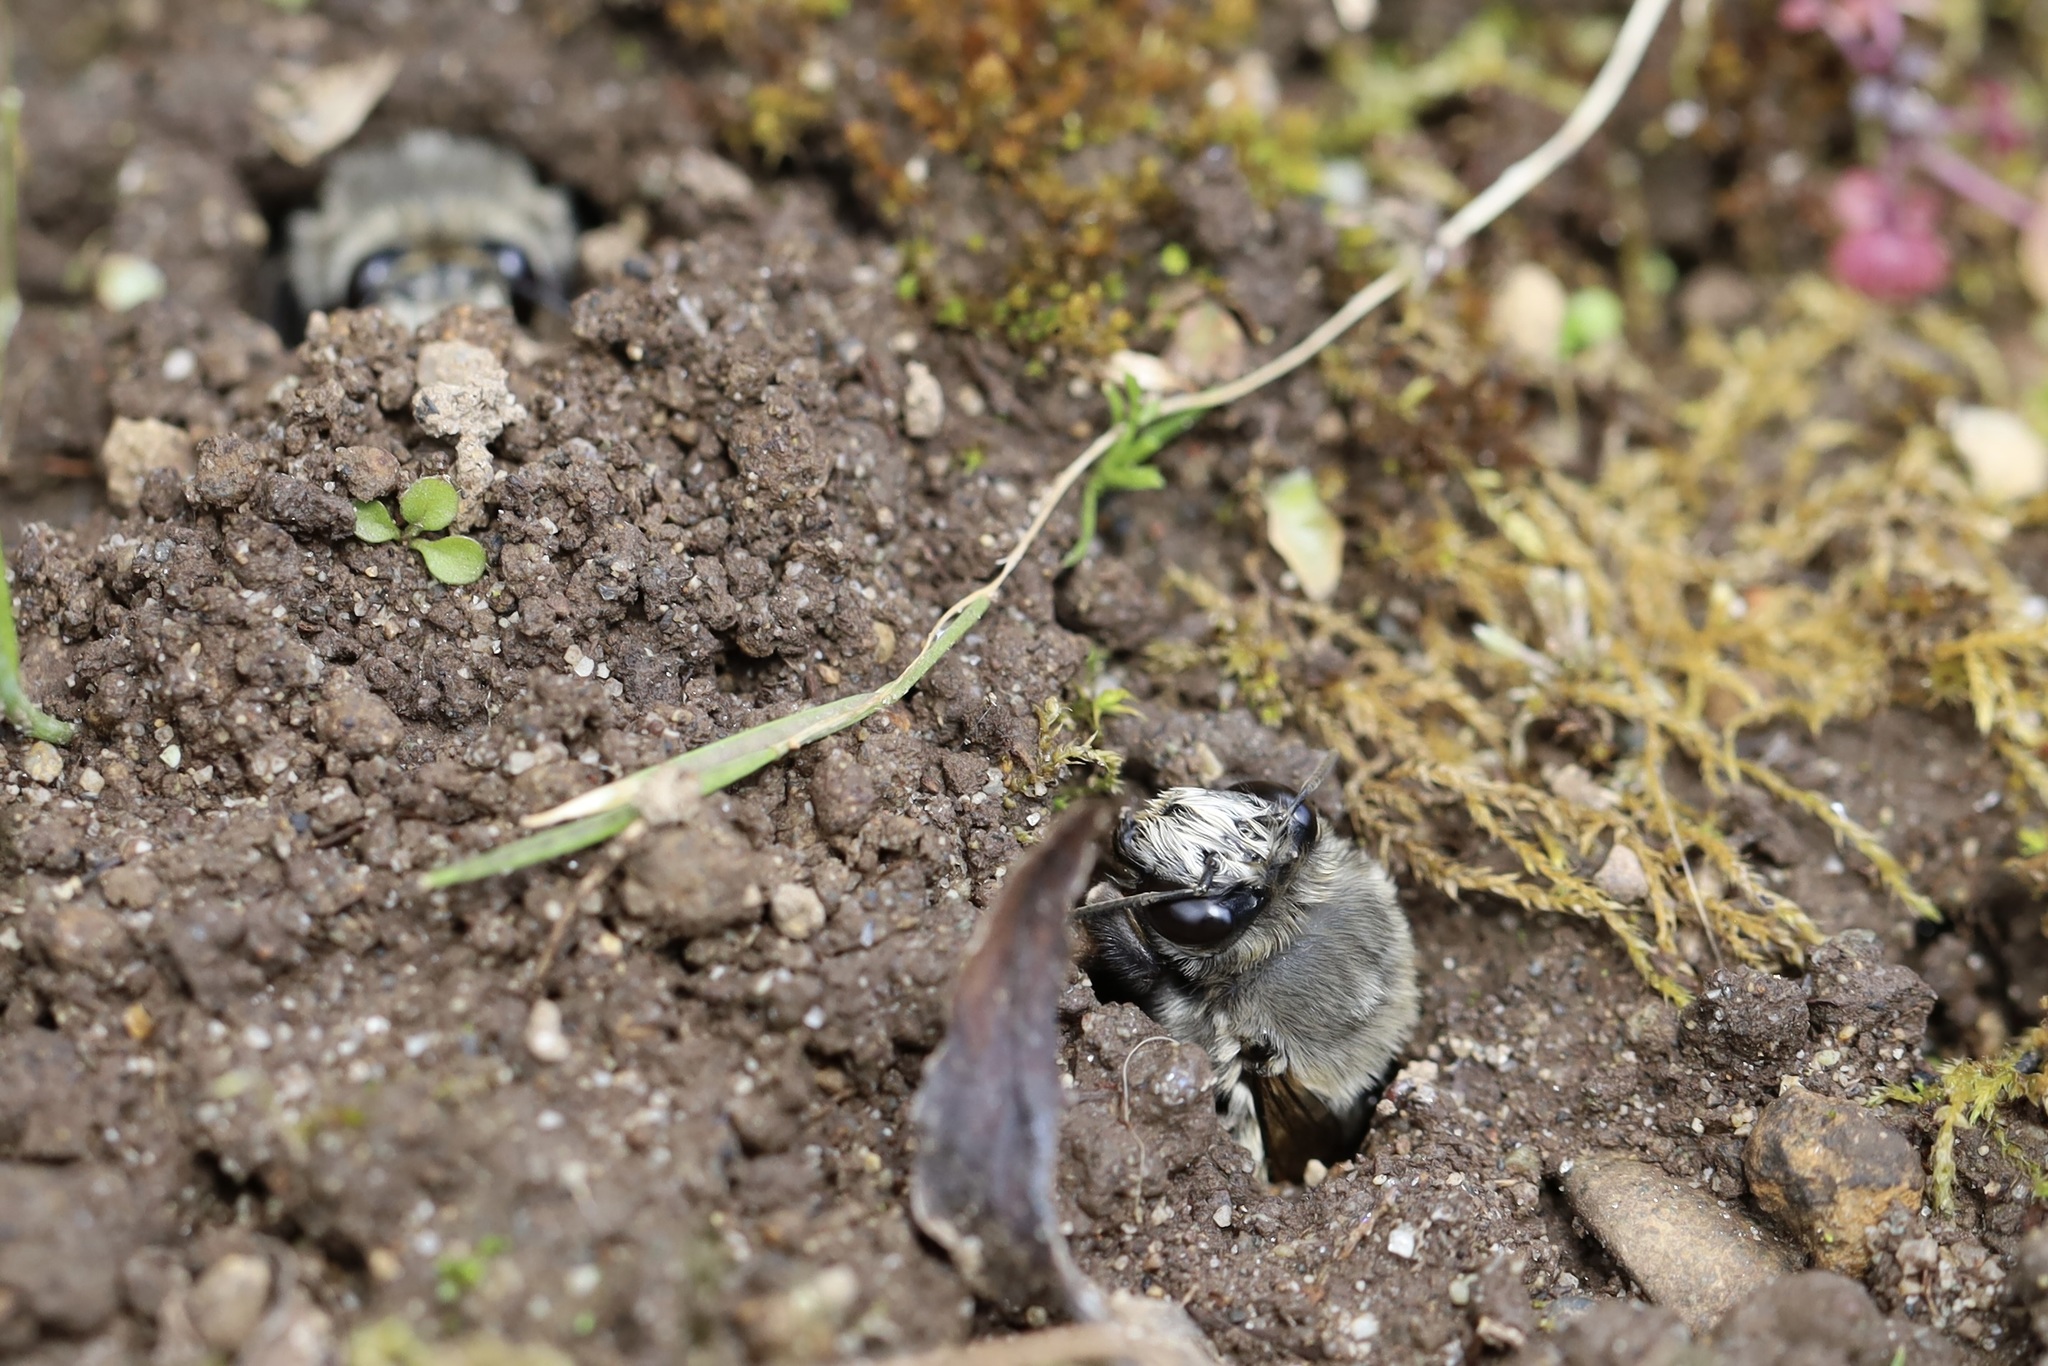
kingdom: Animalia
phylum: Arthropoda
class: Insecta
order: Hymenoptera
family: Apidae
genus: Anthophora
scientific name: Anthophora pacifica
